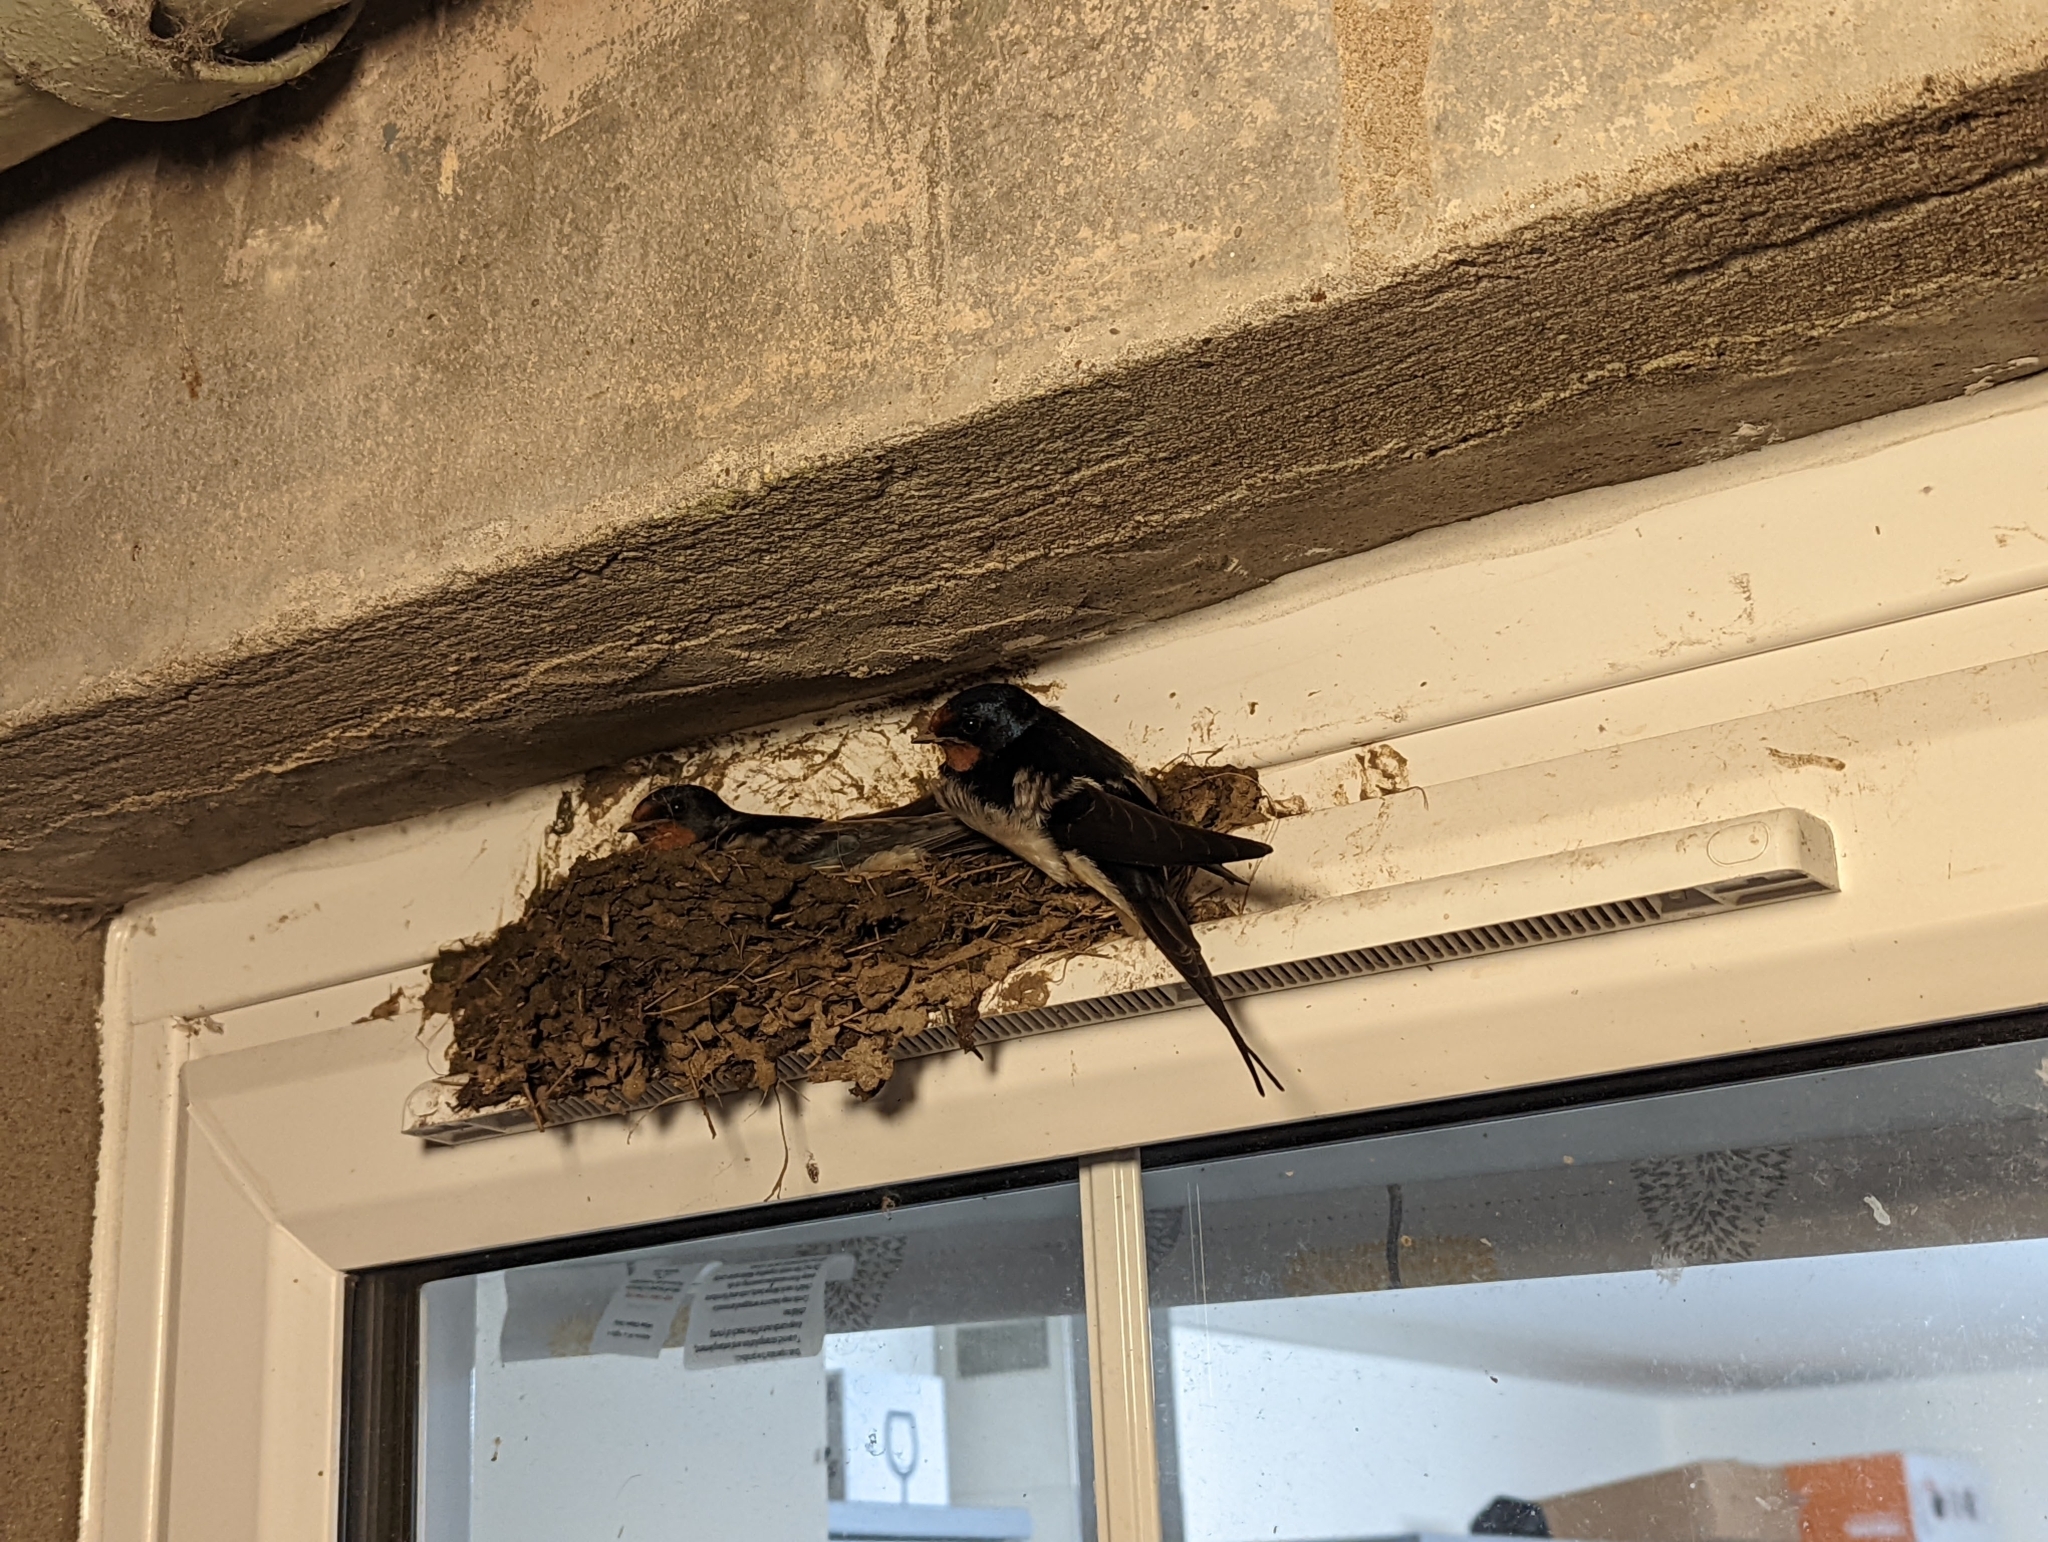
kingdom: Animalia
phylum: Chordata
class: Aves
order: Passeriformes
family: Hirundinidae
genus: Hirundo
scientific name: Hirundo rustica
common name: Barn swallow
